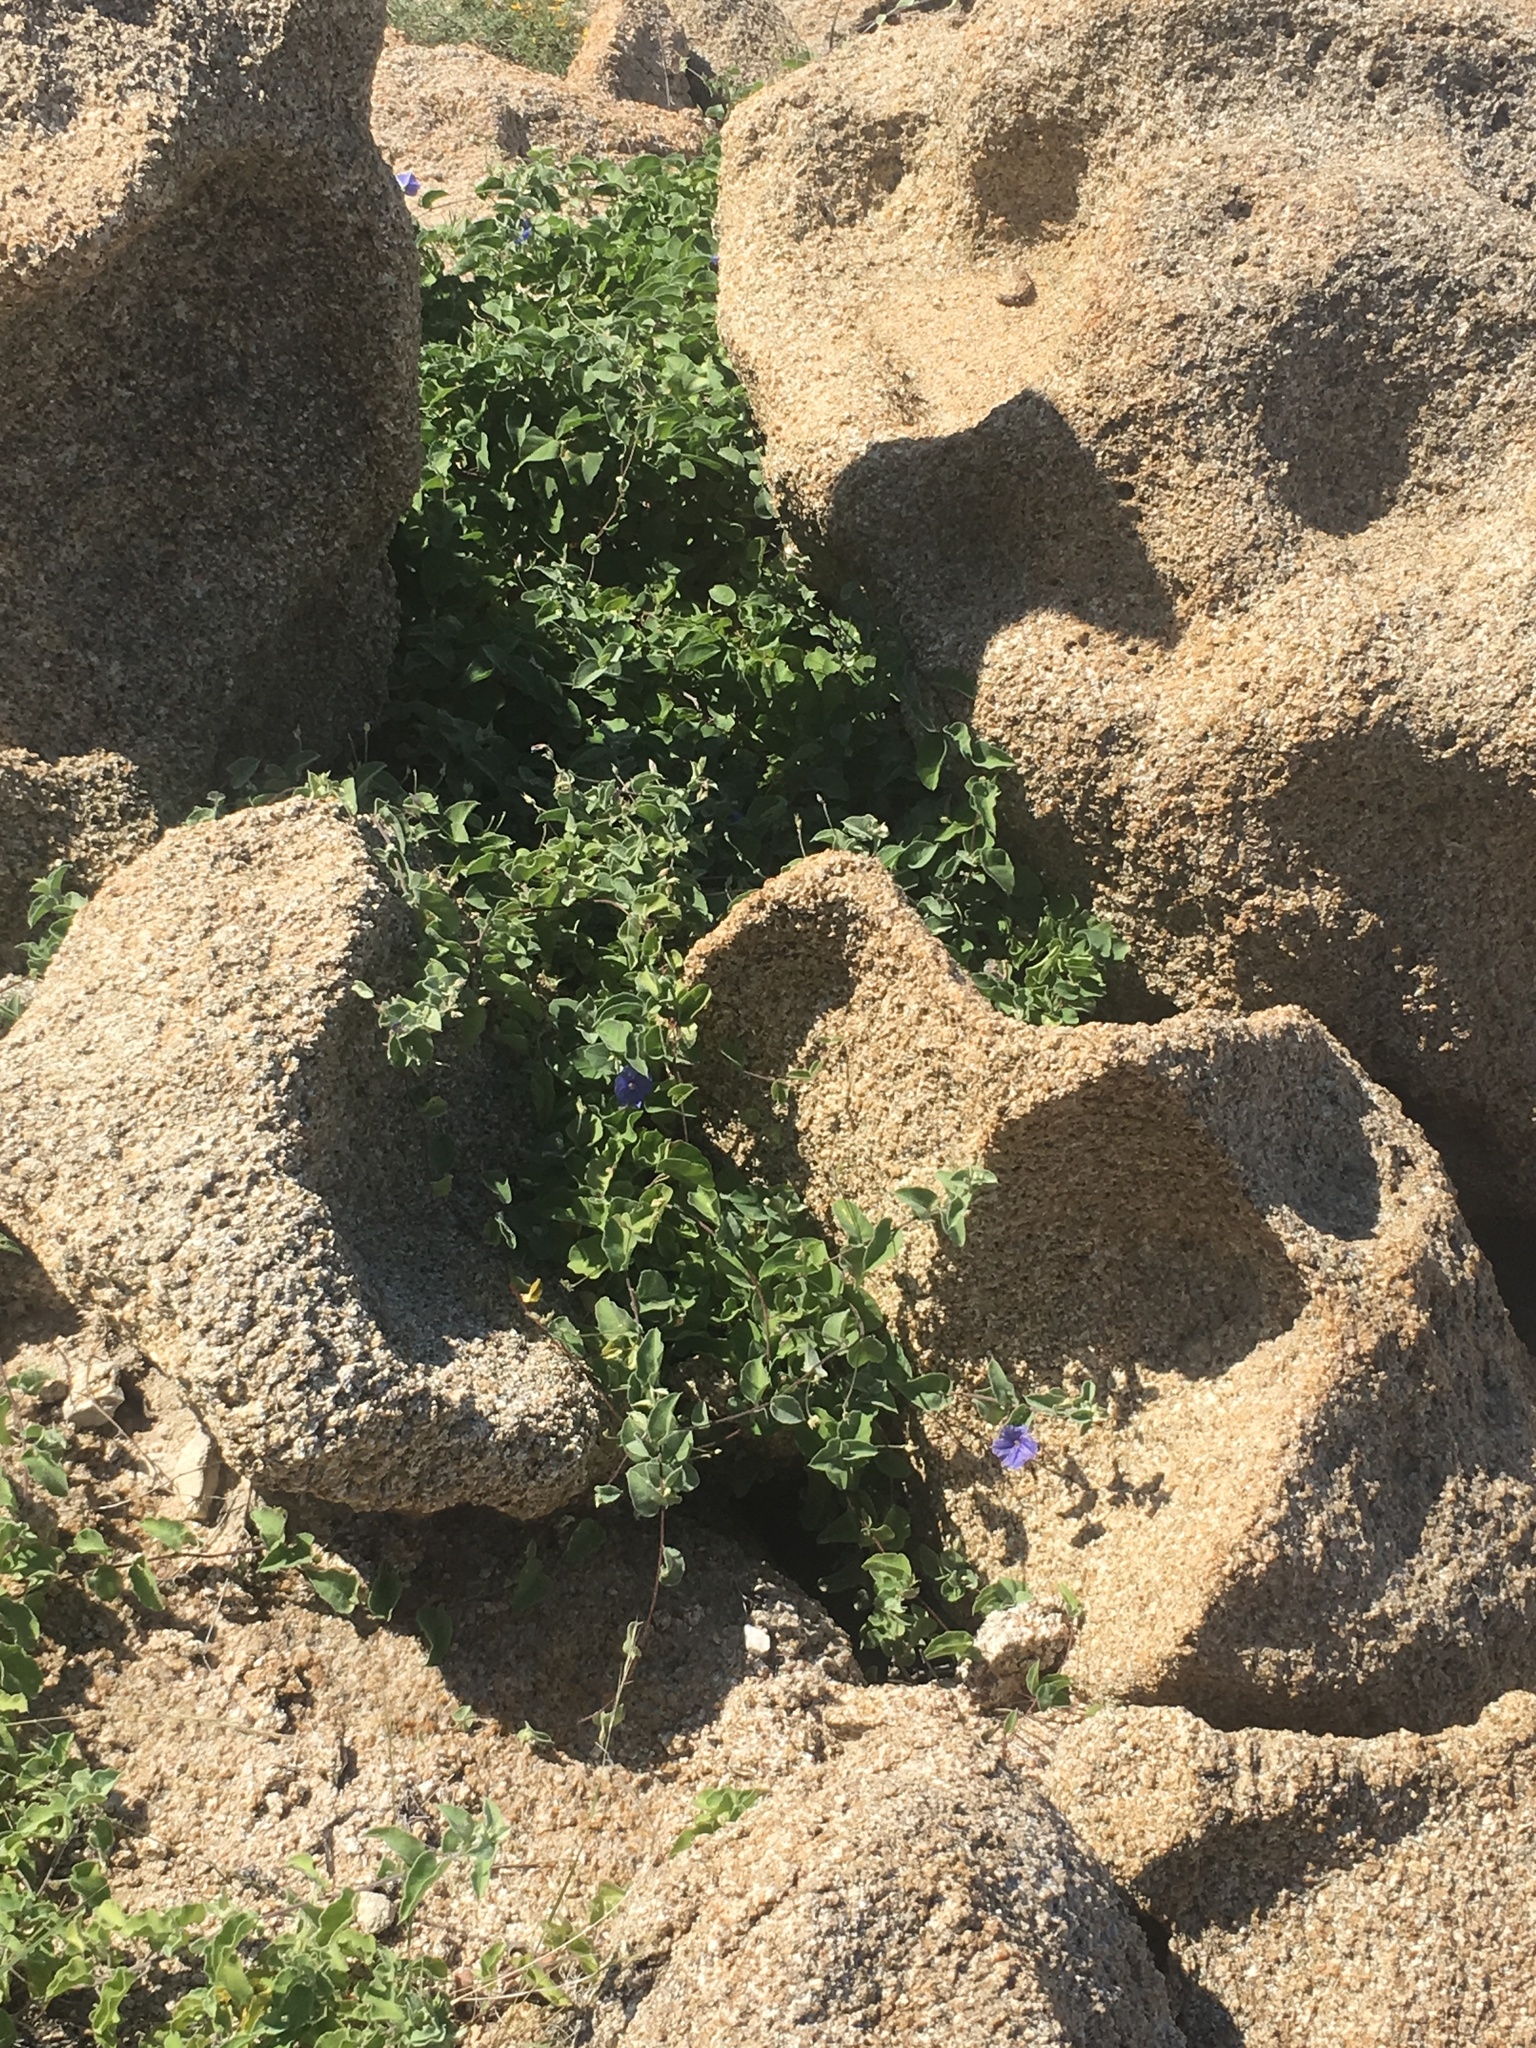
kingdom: Plantae
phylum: Tracheophyta
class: Magnoliopsida
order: Solanales
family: Convolvulaceae
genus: Jacquemontia
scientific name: Jacquemontia abutiloides
